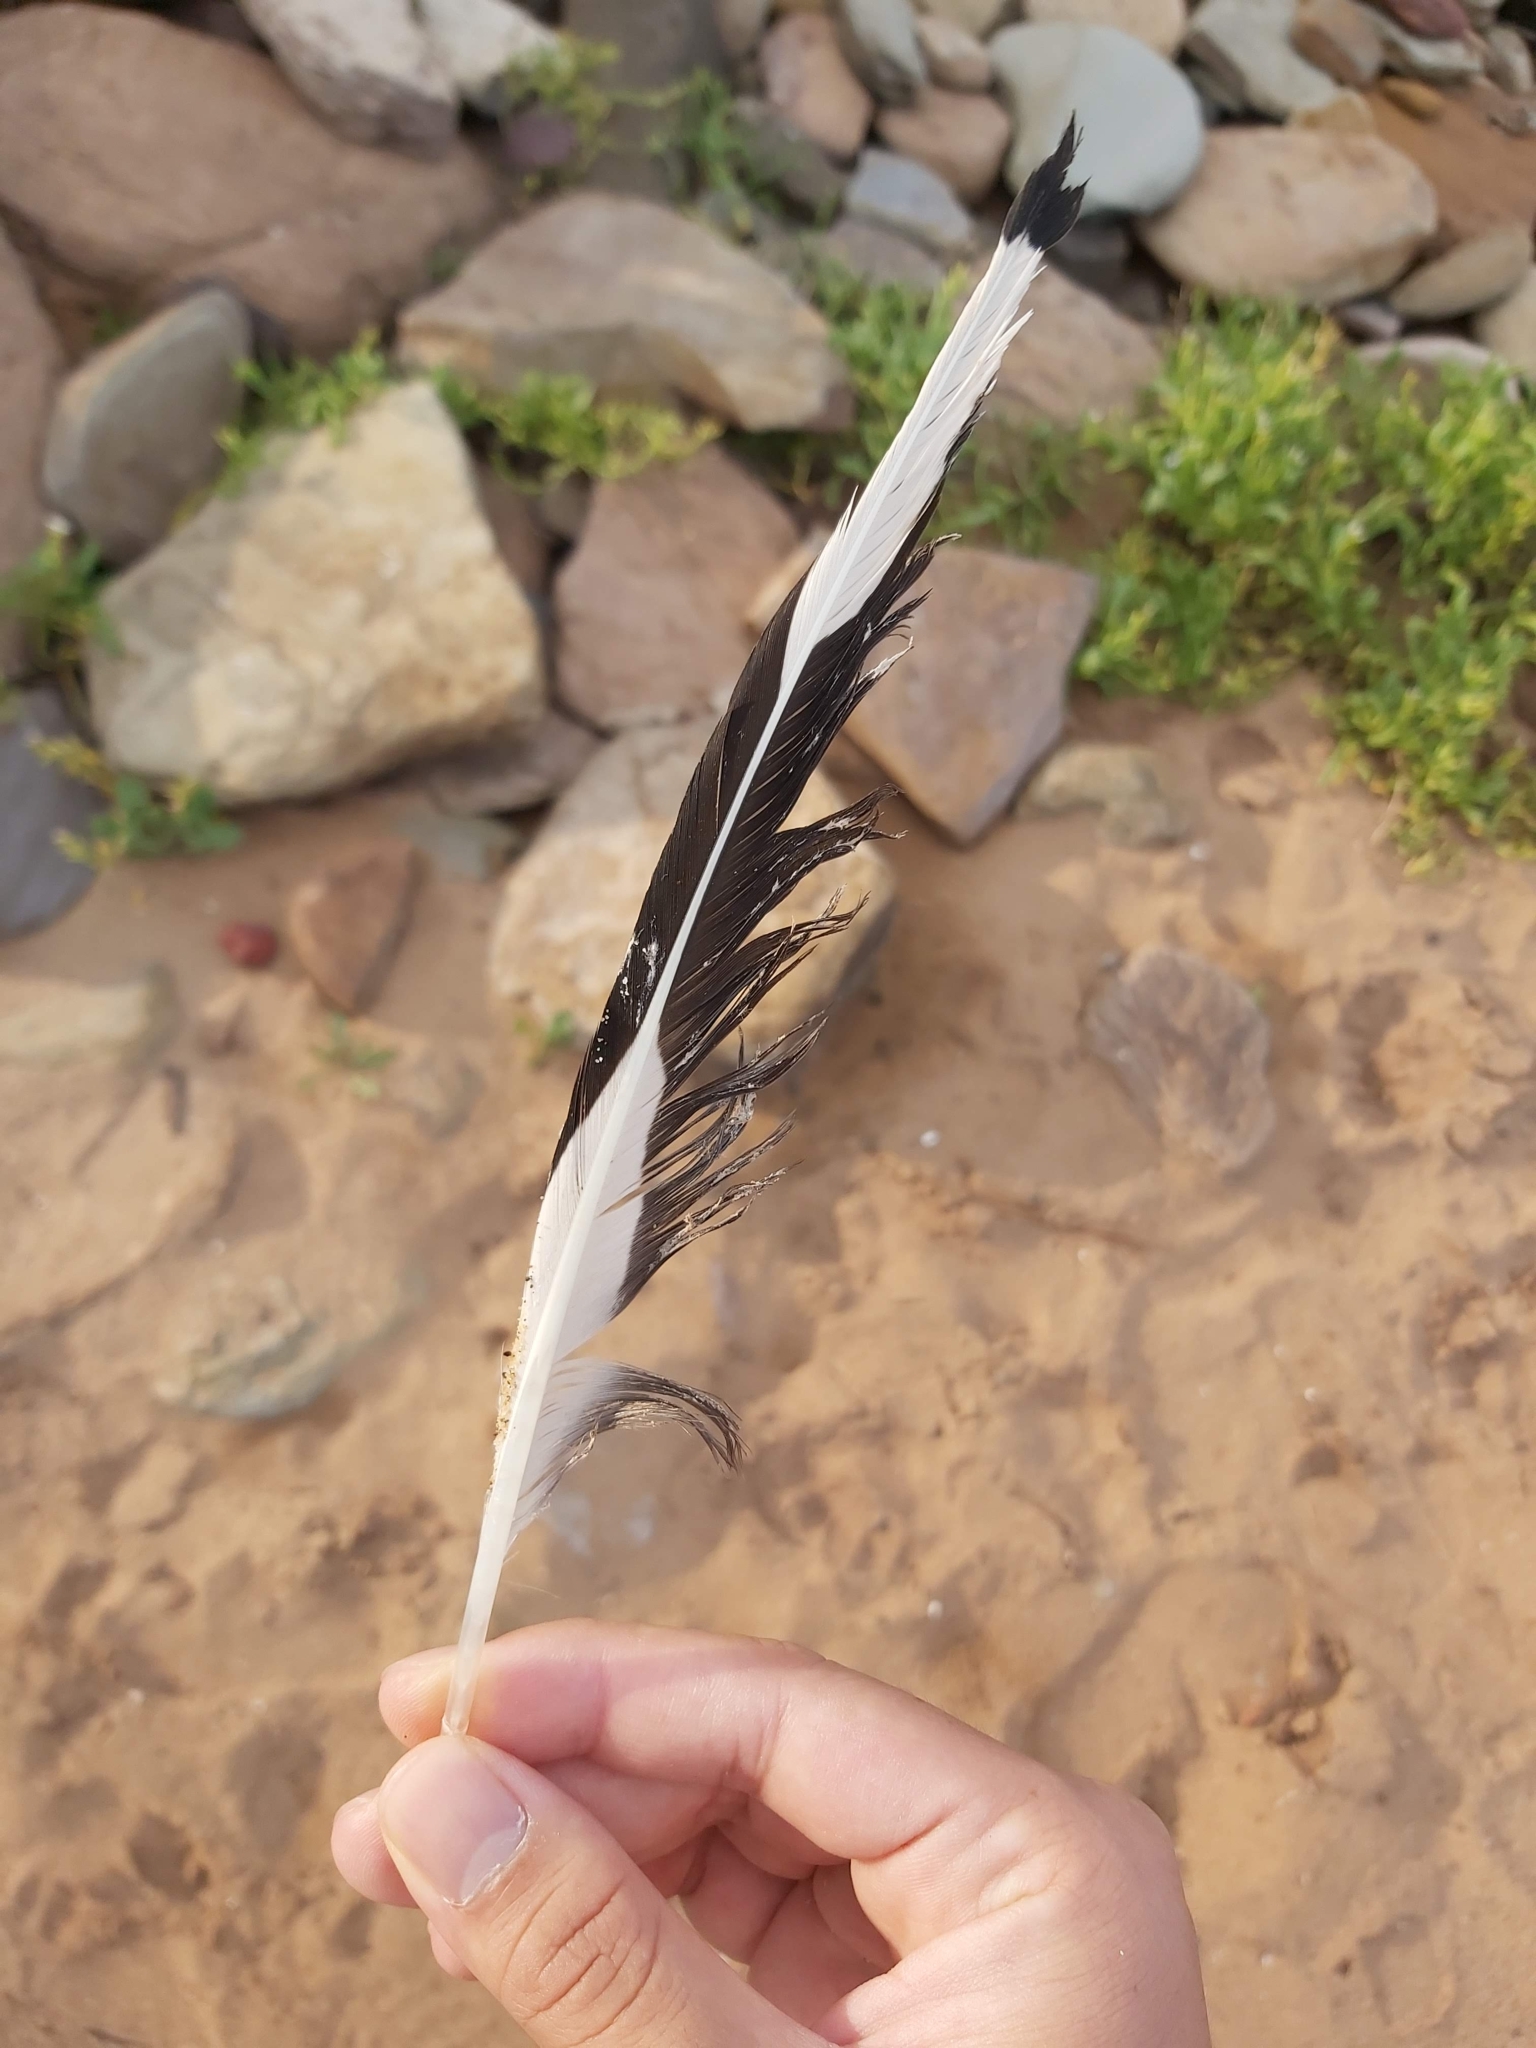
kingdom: Animalia
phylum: Chordata
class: Aves
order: Charadriiformes
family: Laridae
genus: Chroicocephalus
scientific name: Chroicocephalus novaehollandiae
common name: Silver gull
